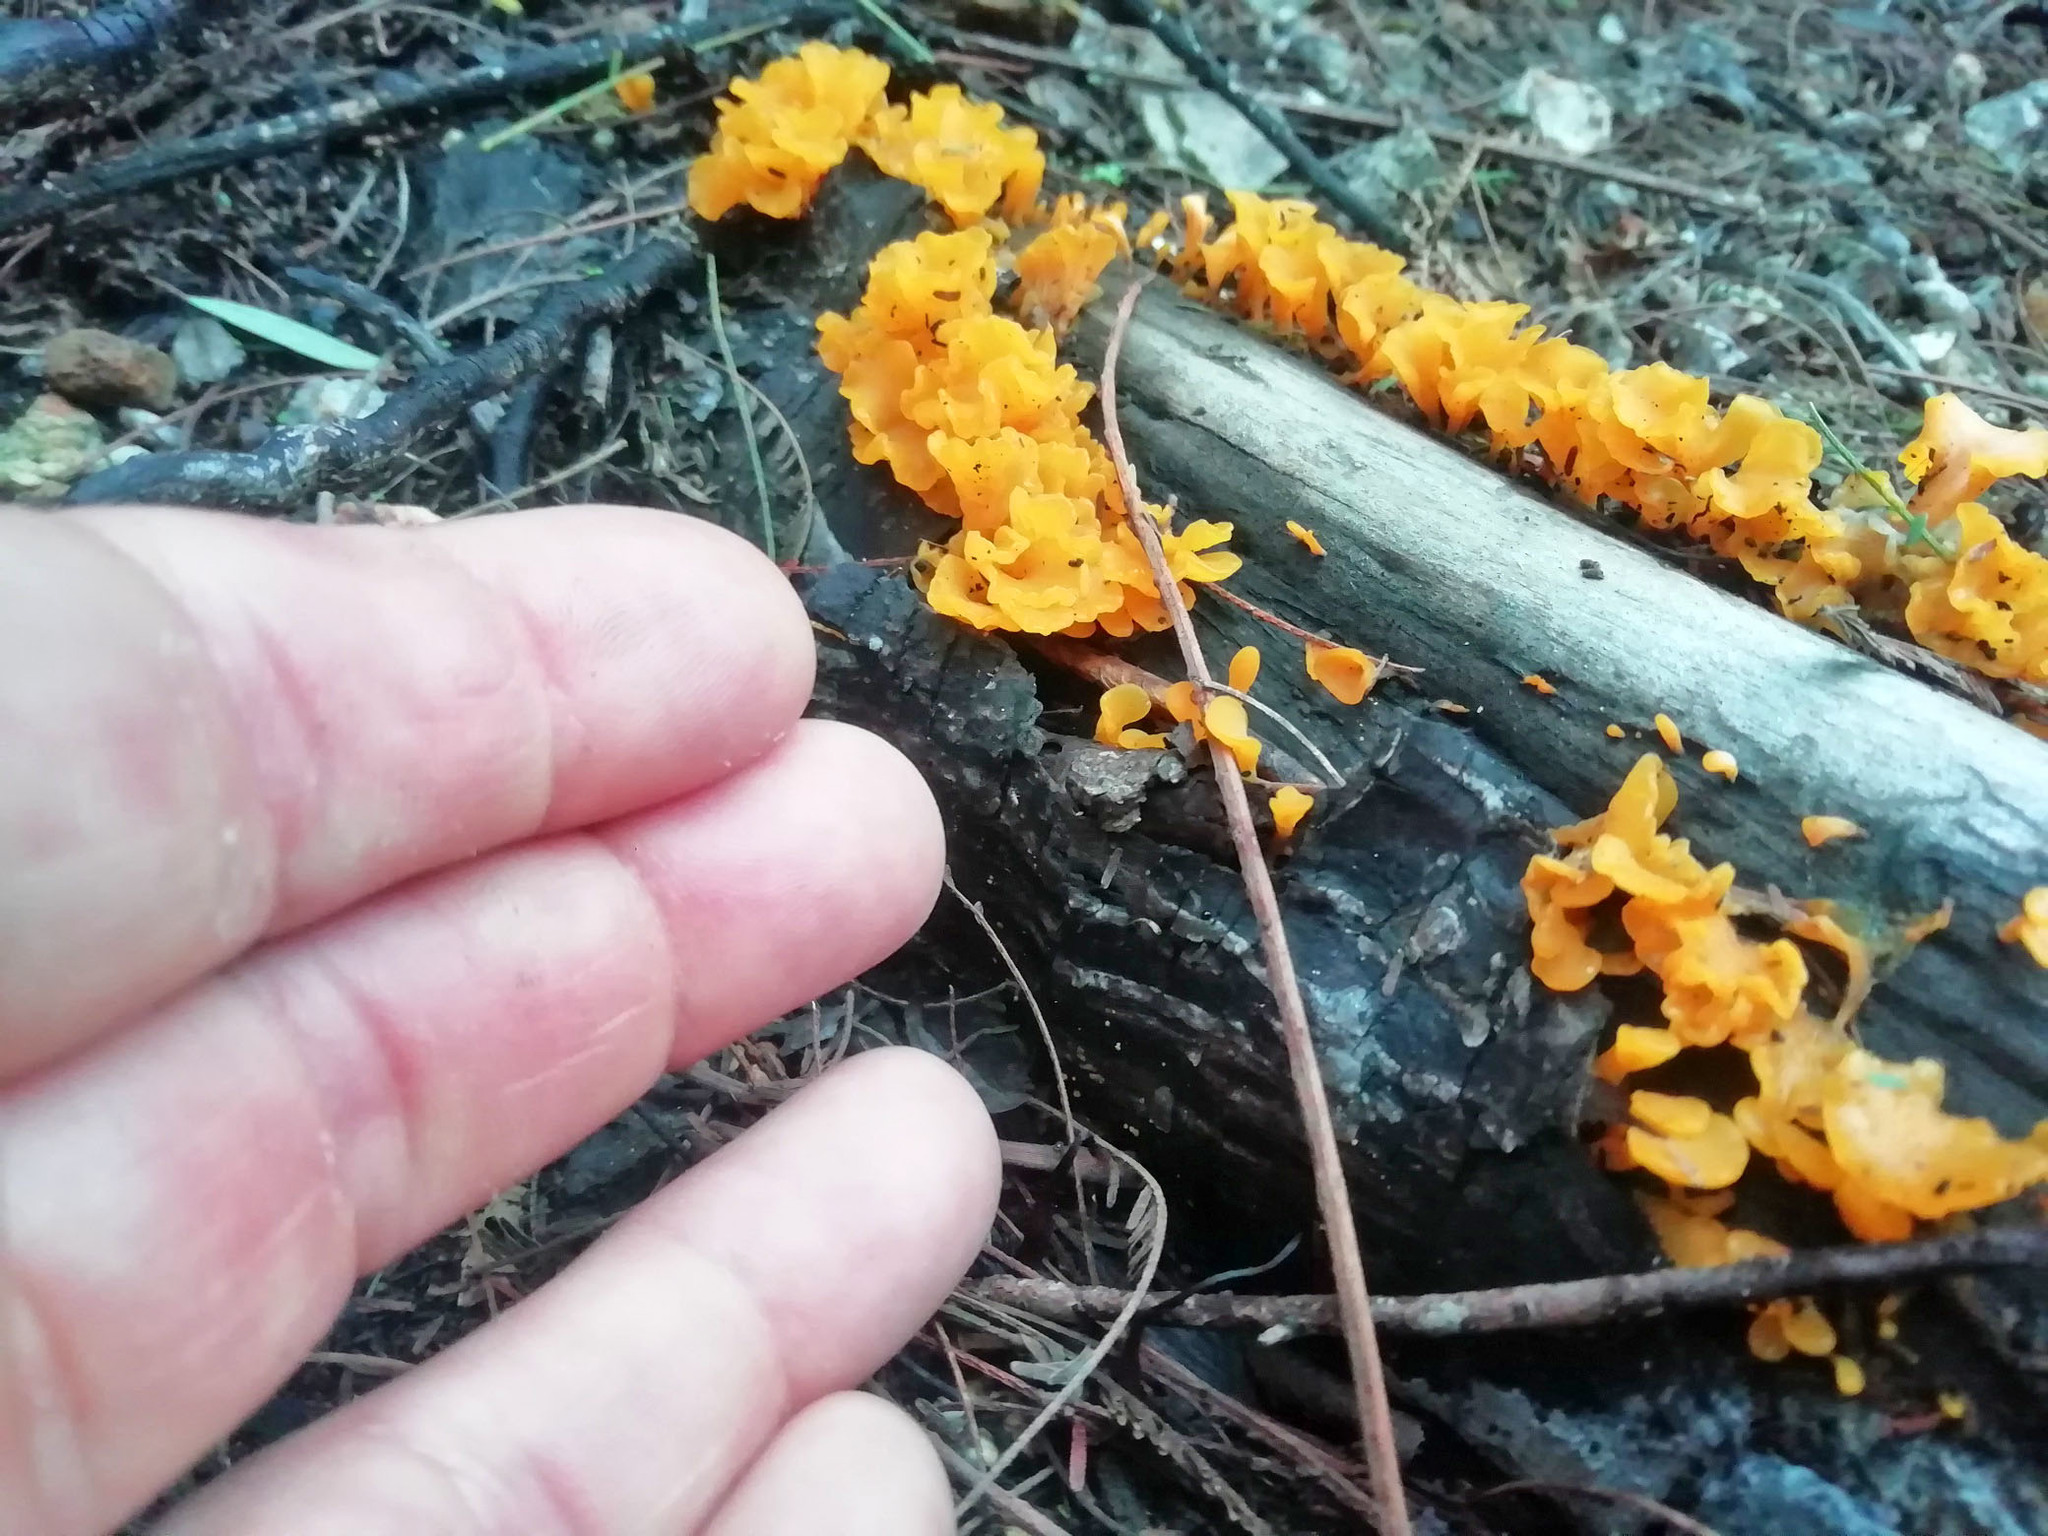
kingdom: Fungi
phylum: Basidiomycota
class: Dacrymycetes
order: Dacrymycetales
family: Dacrymycetaceae
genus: Dacrymyces
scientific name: Dacrymyces spathularius
